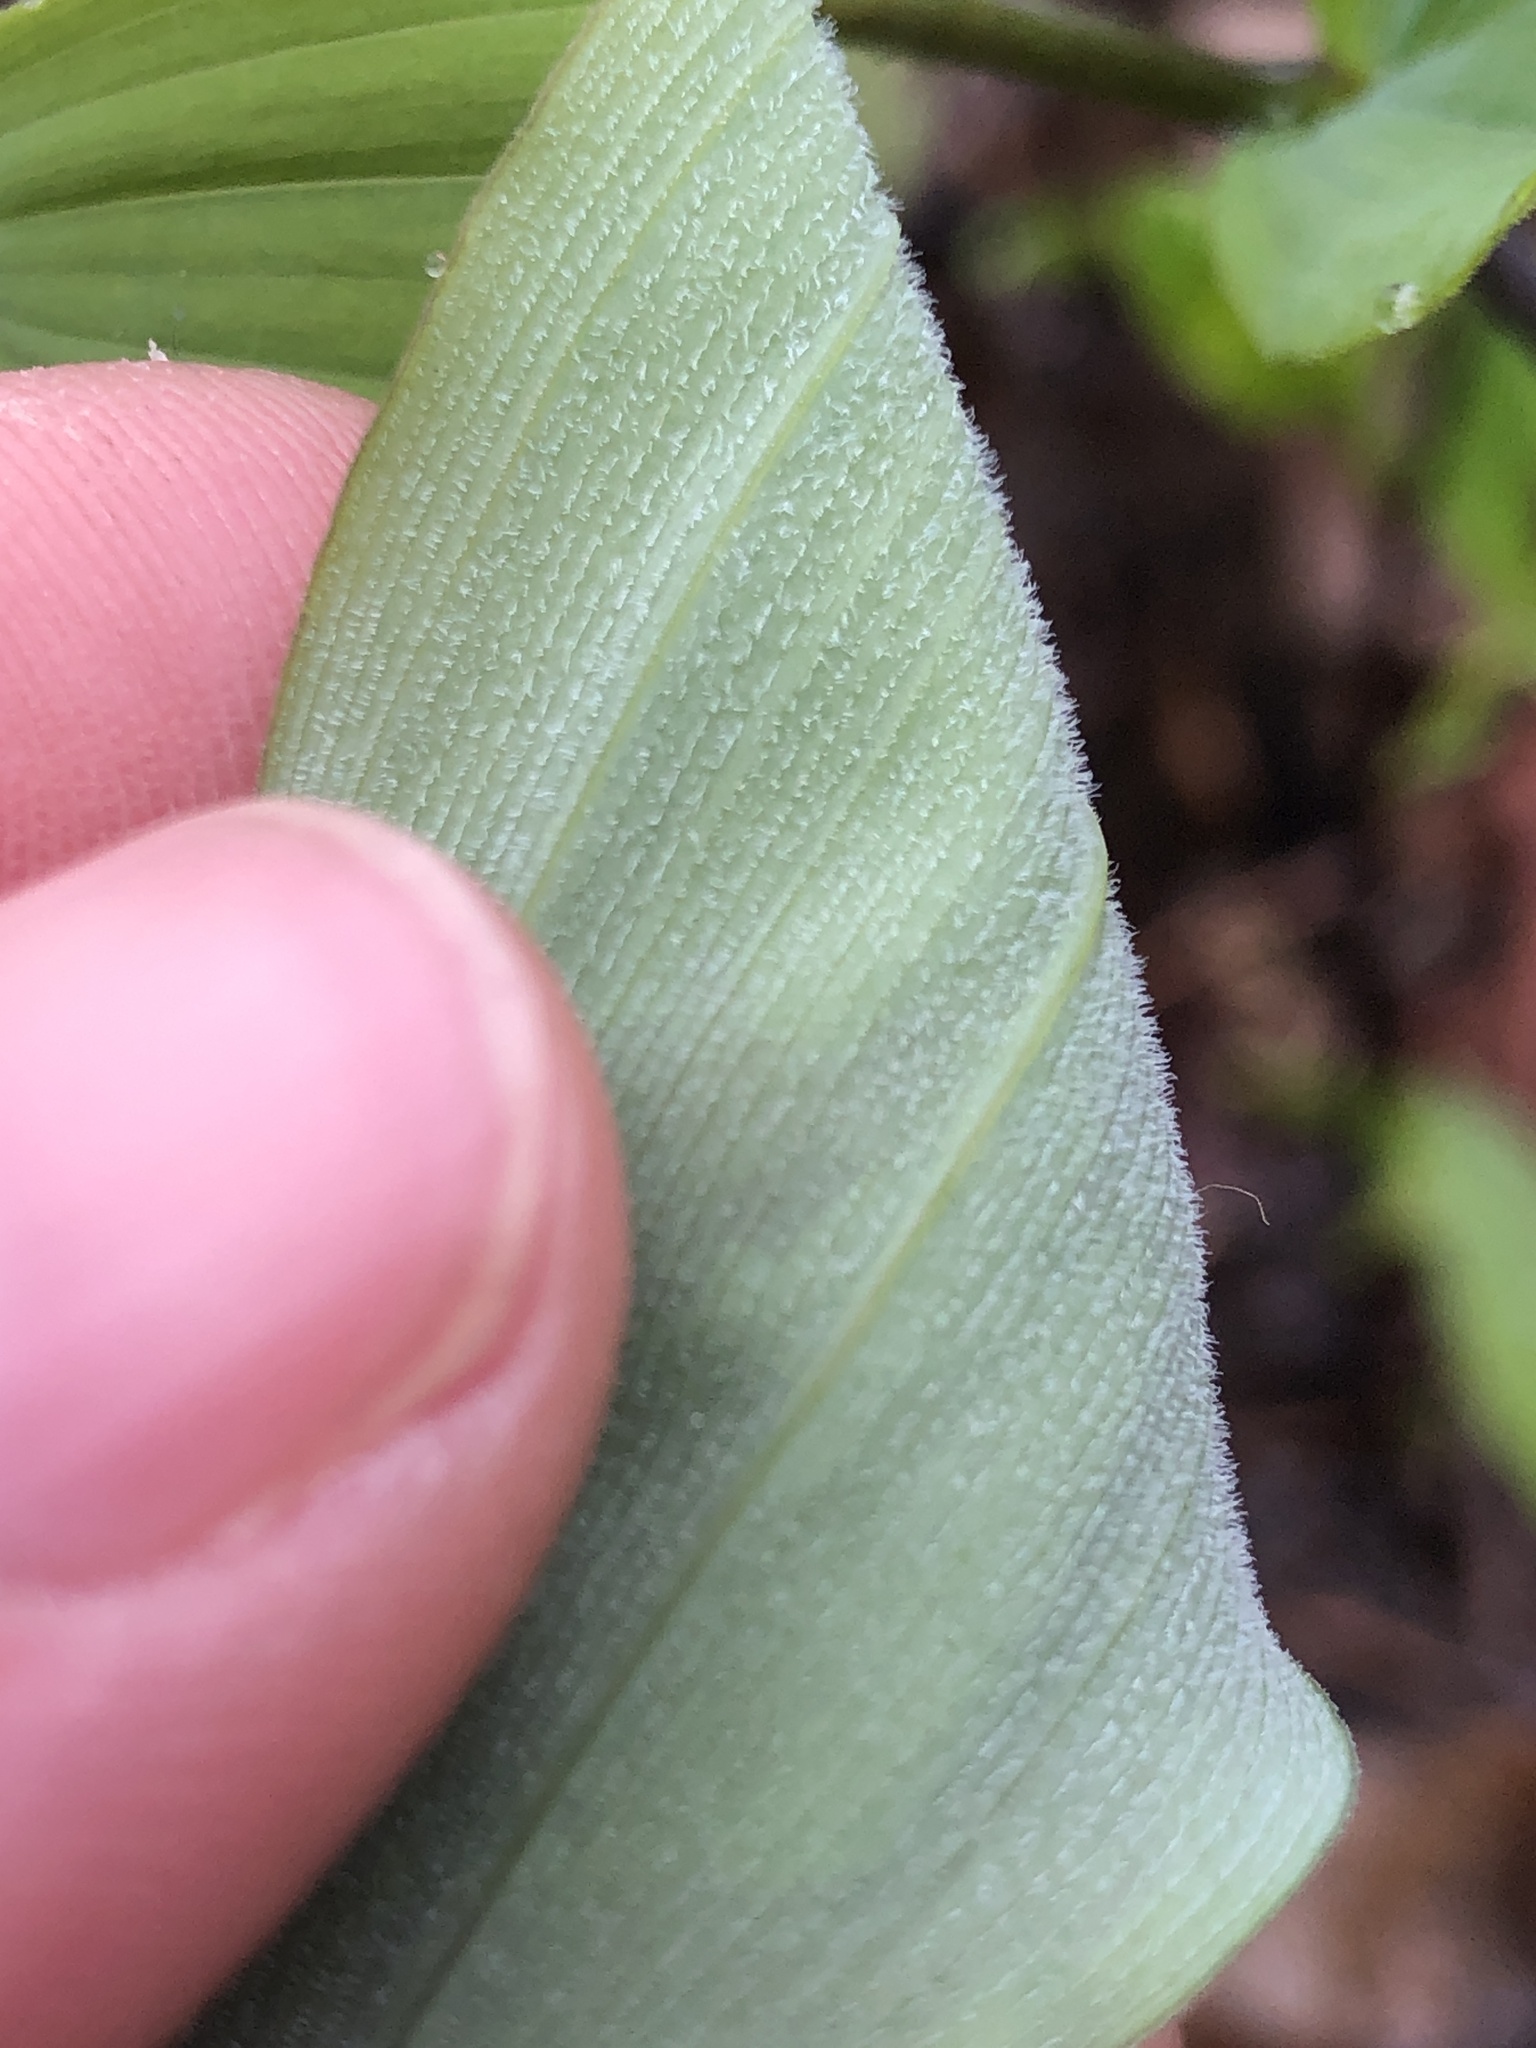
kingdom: Plantae
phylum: Tracheophyta
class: Liliopsida
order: Asparagales
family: Asparagaceae
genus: Polygonatum
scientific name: Polygonatum pubescens
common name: Downy solomon's seal
